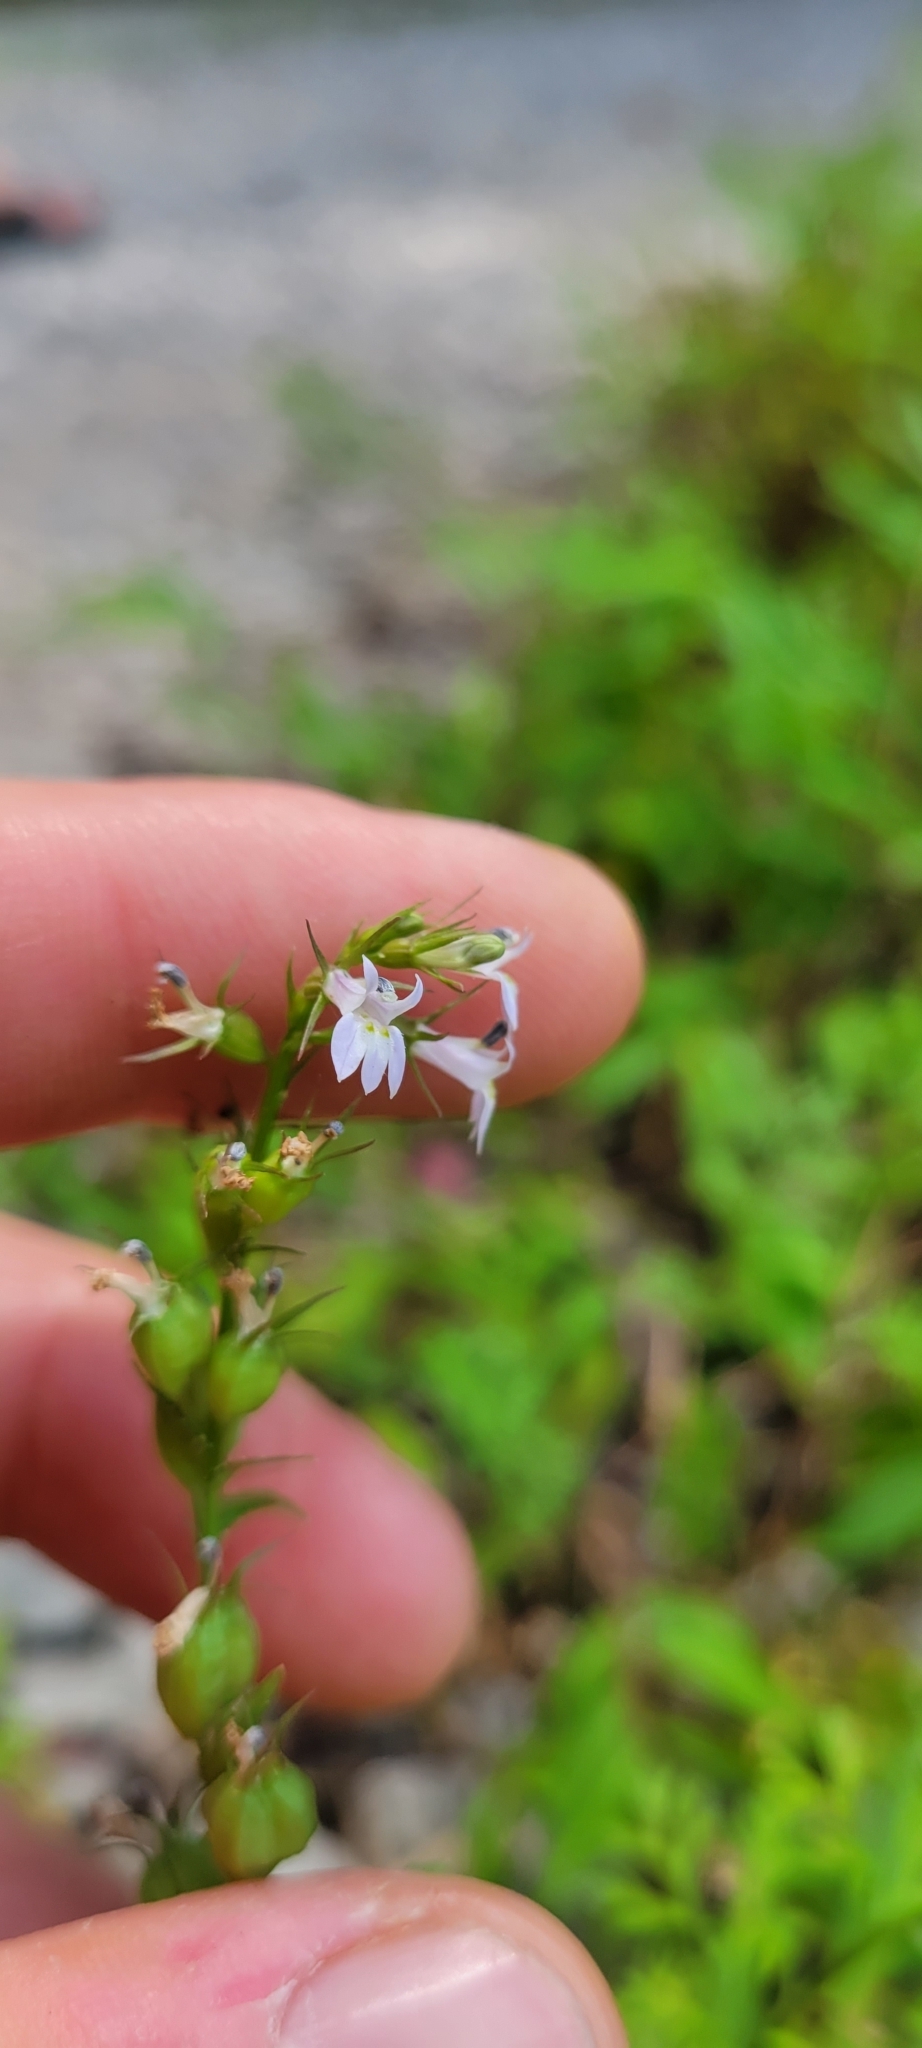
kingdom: Plantae
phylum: Tracheophyta
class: Magnoliopsida
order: Asterales
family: Campanulaceae
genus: Lobelia
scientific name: Lobelia inflata
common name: Indian tobacco
